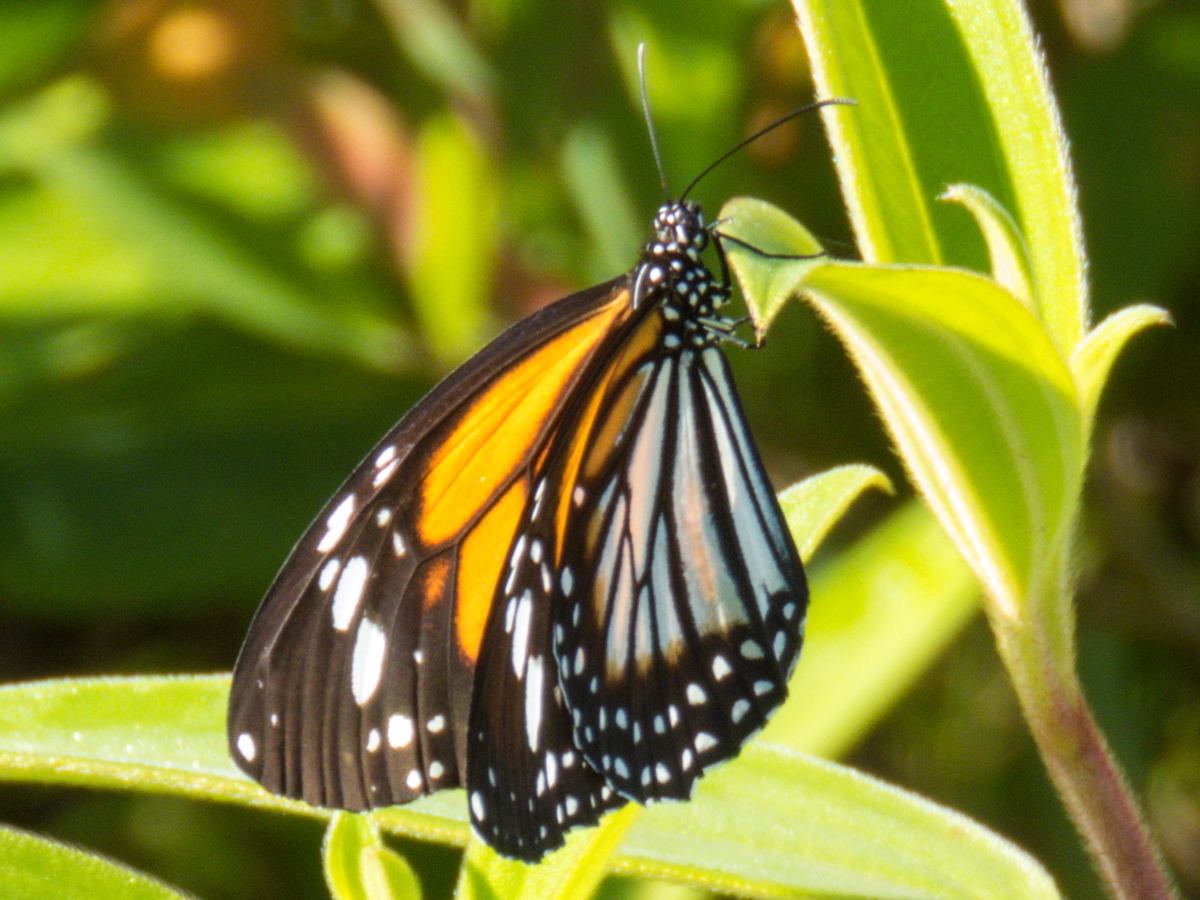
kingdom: Animalia
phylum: Arthropoda
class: Insecta
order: Lepidoptera
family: Nymphalidae
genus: Danaus
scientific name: Danaus melanippus
